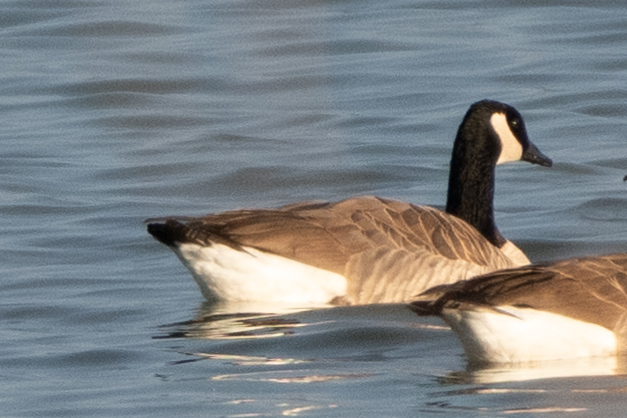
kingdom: Animalia
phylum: Chordata
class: Aves
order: Anseriformes
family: Anatidae
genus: Branta
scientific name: Branta canadensis
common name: Canada goose
